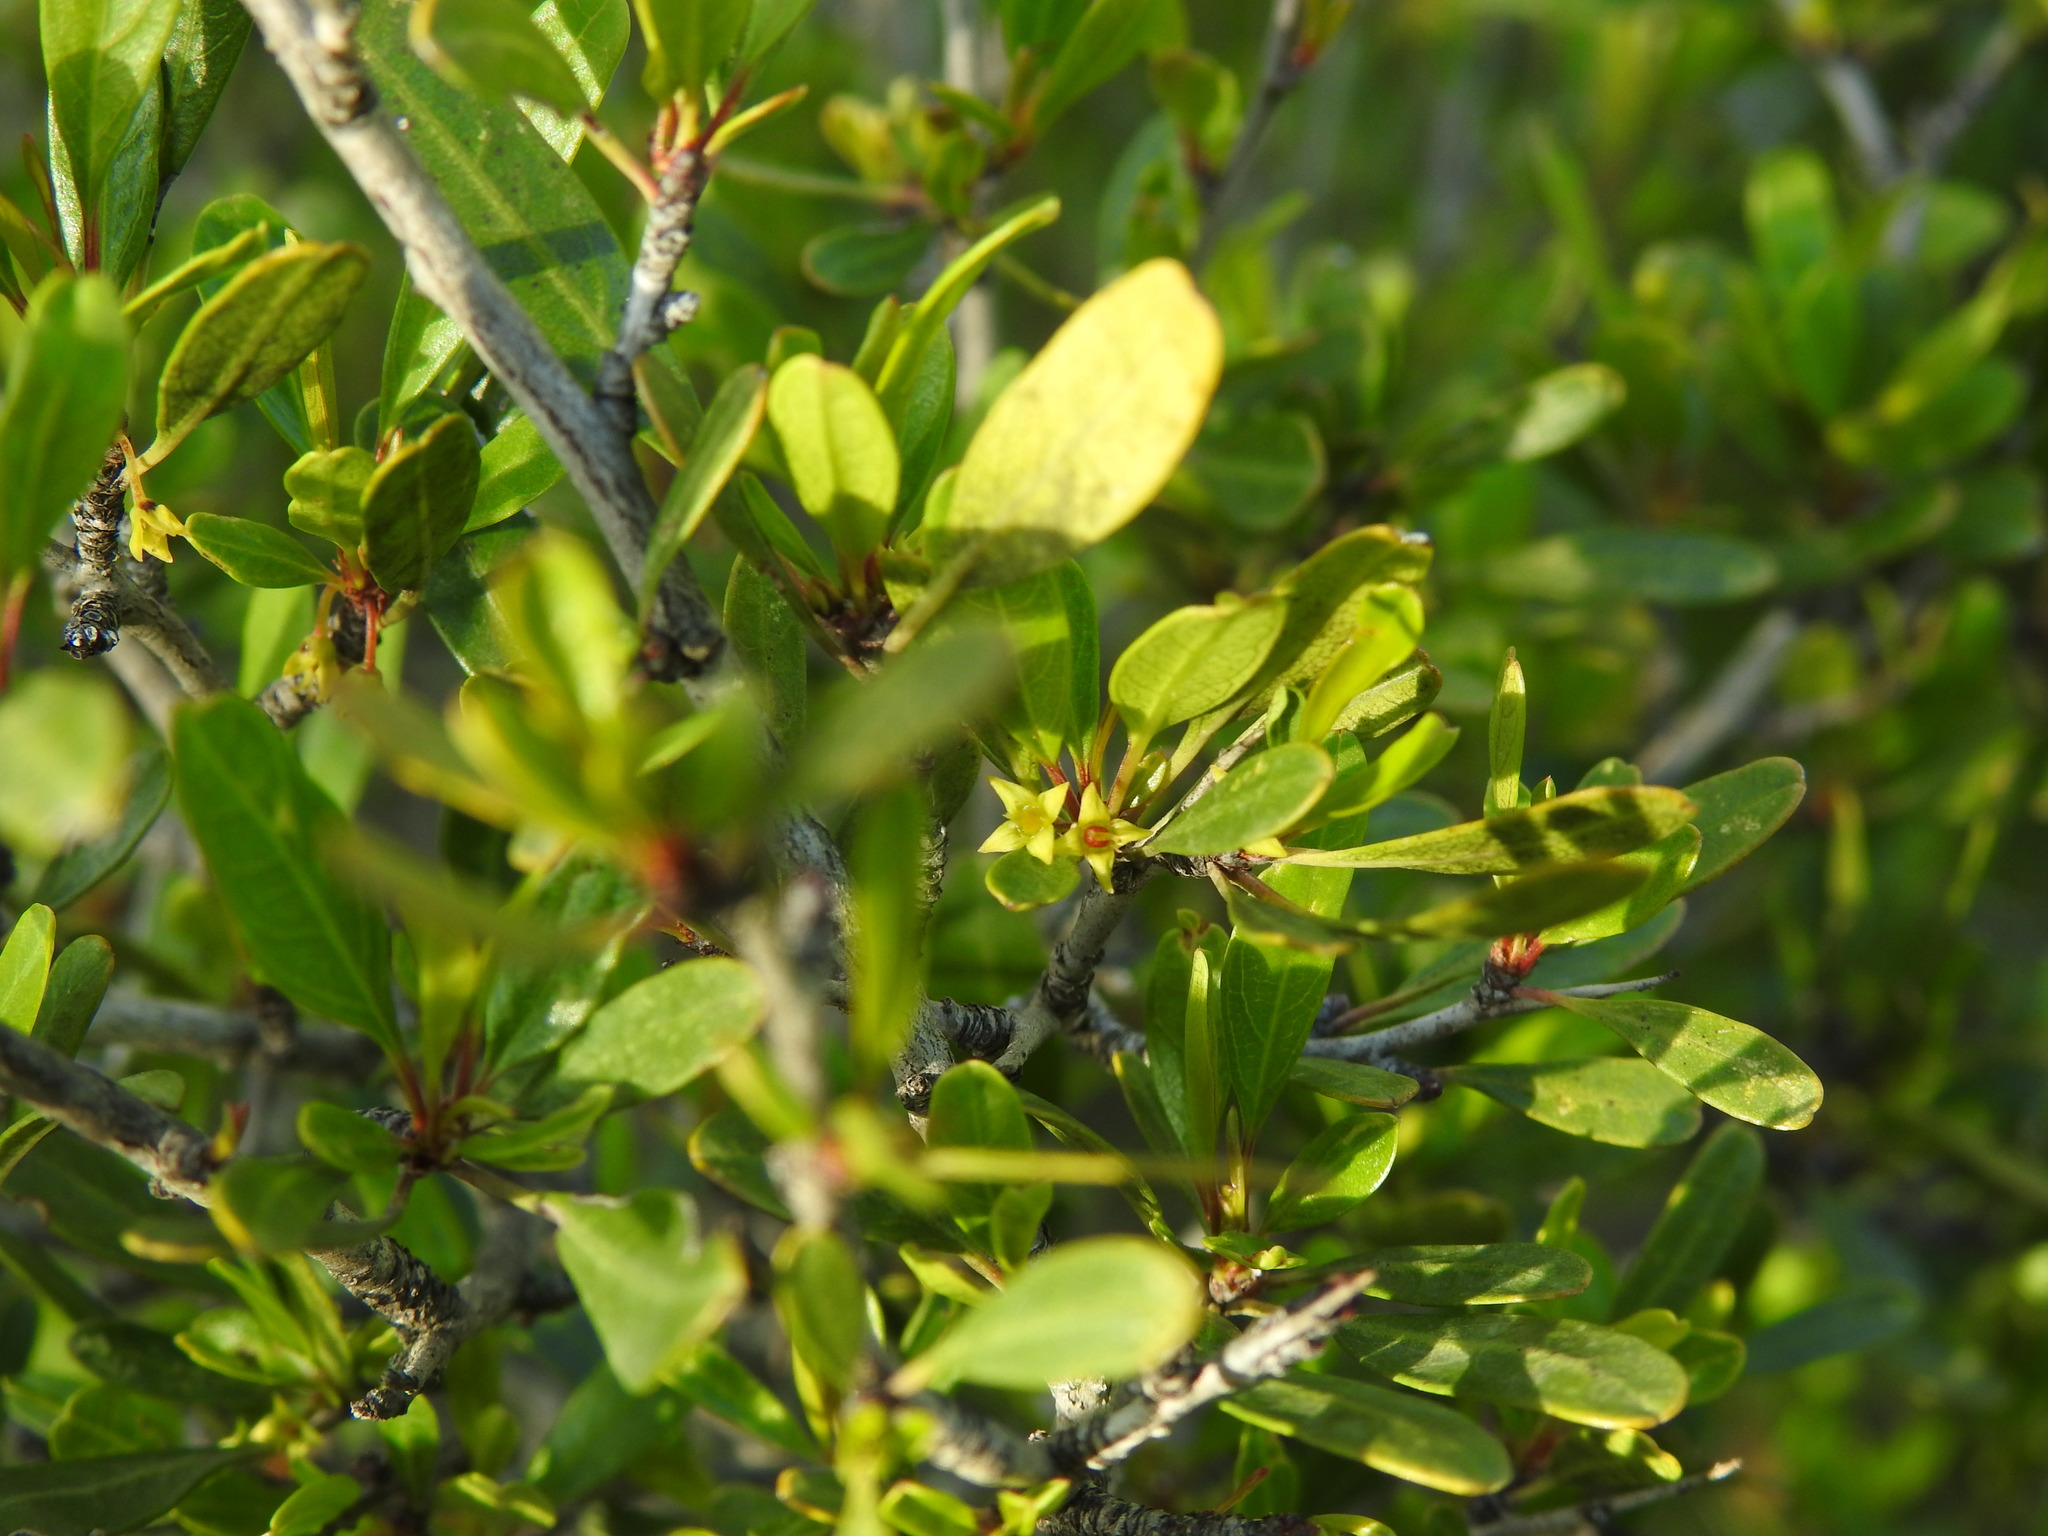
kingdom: Plantae
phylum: Tracheophyta
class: Magnoliopsida
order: Rosales
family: Rhamnaceae
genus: Rhamnus
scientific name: Rhamnus oleoides
